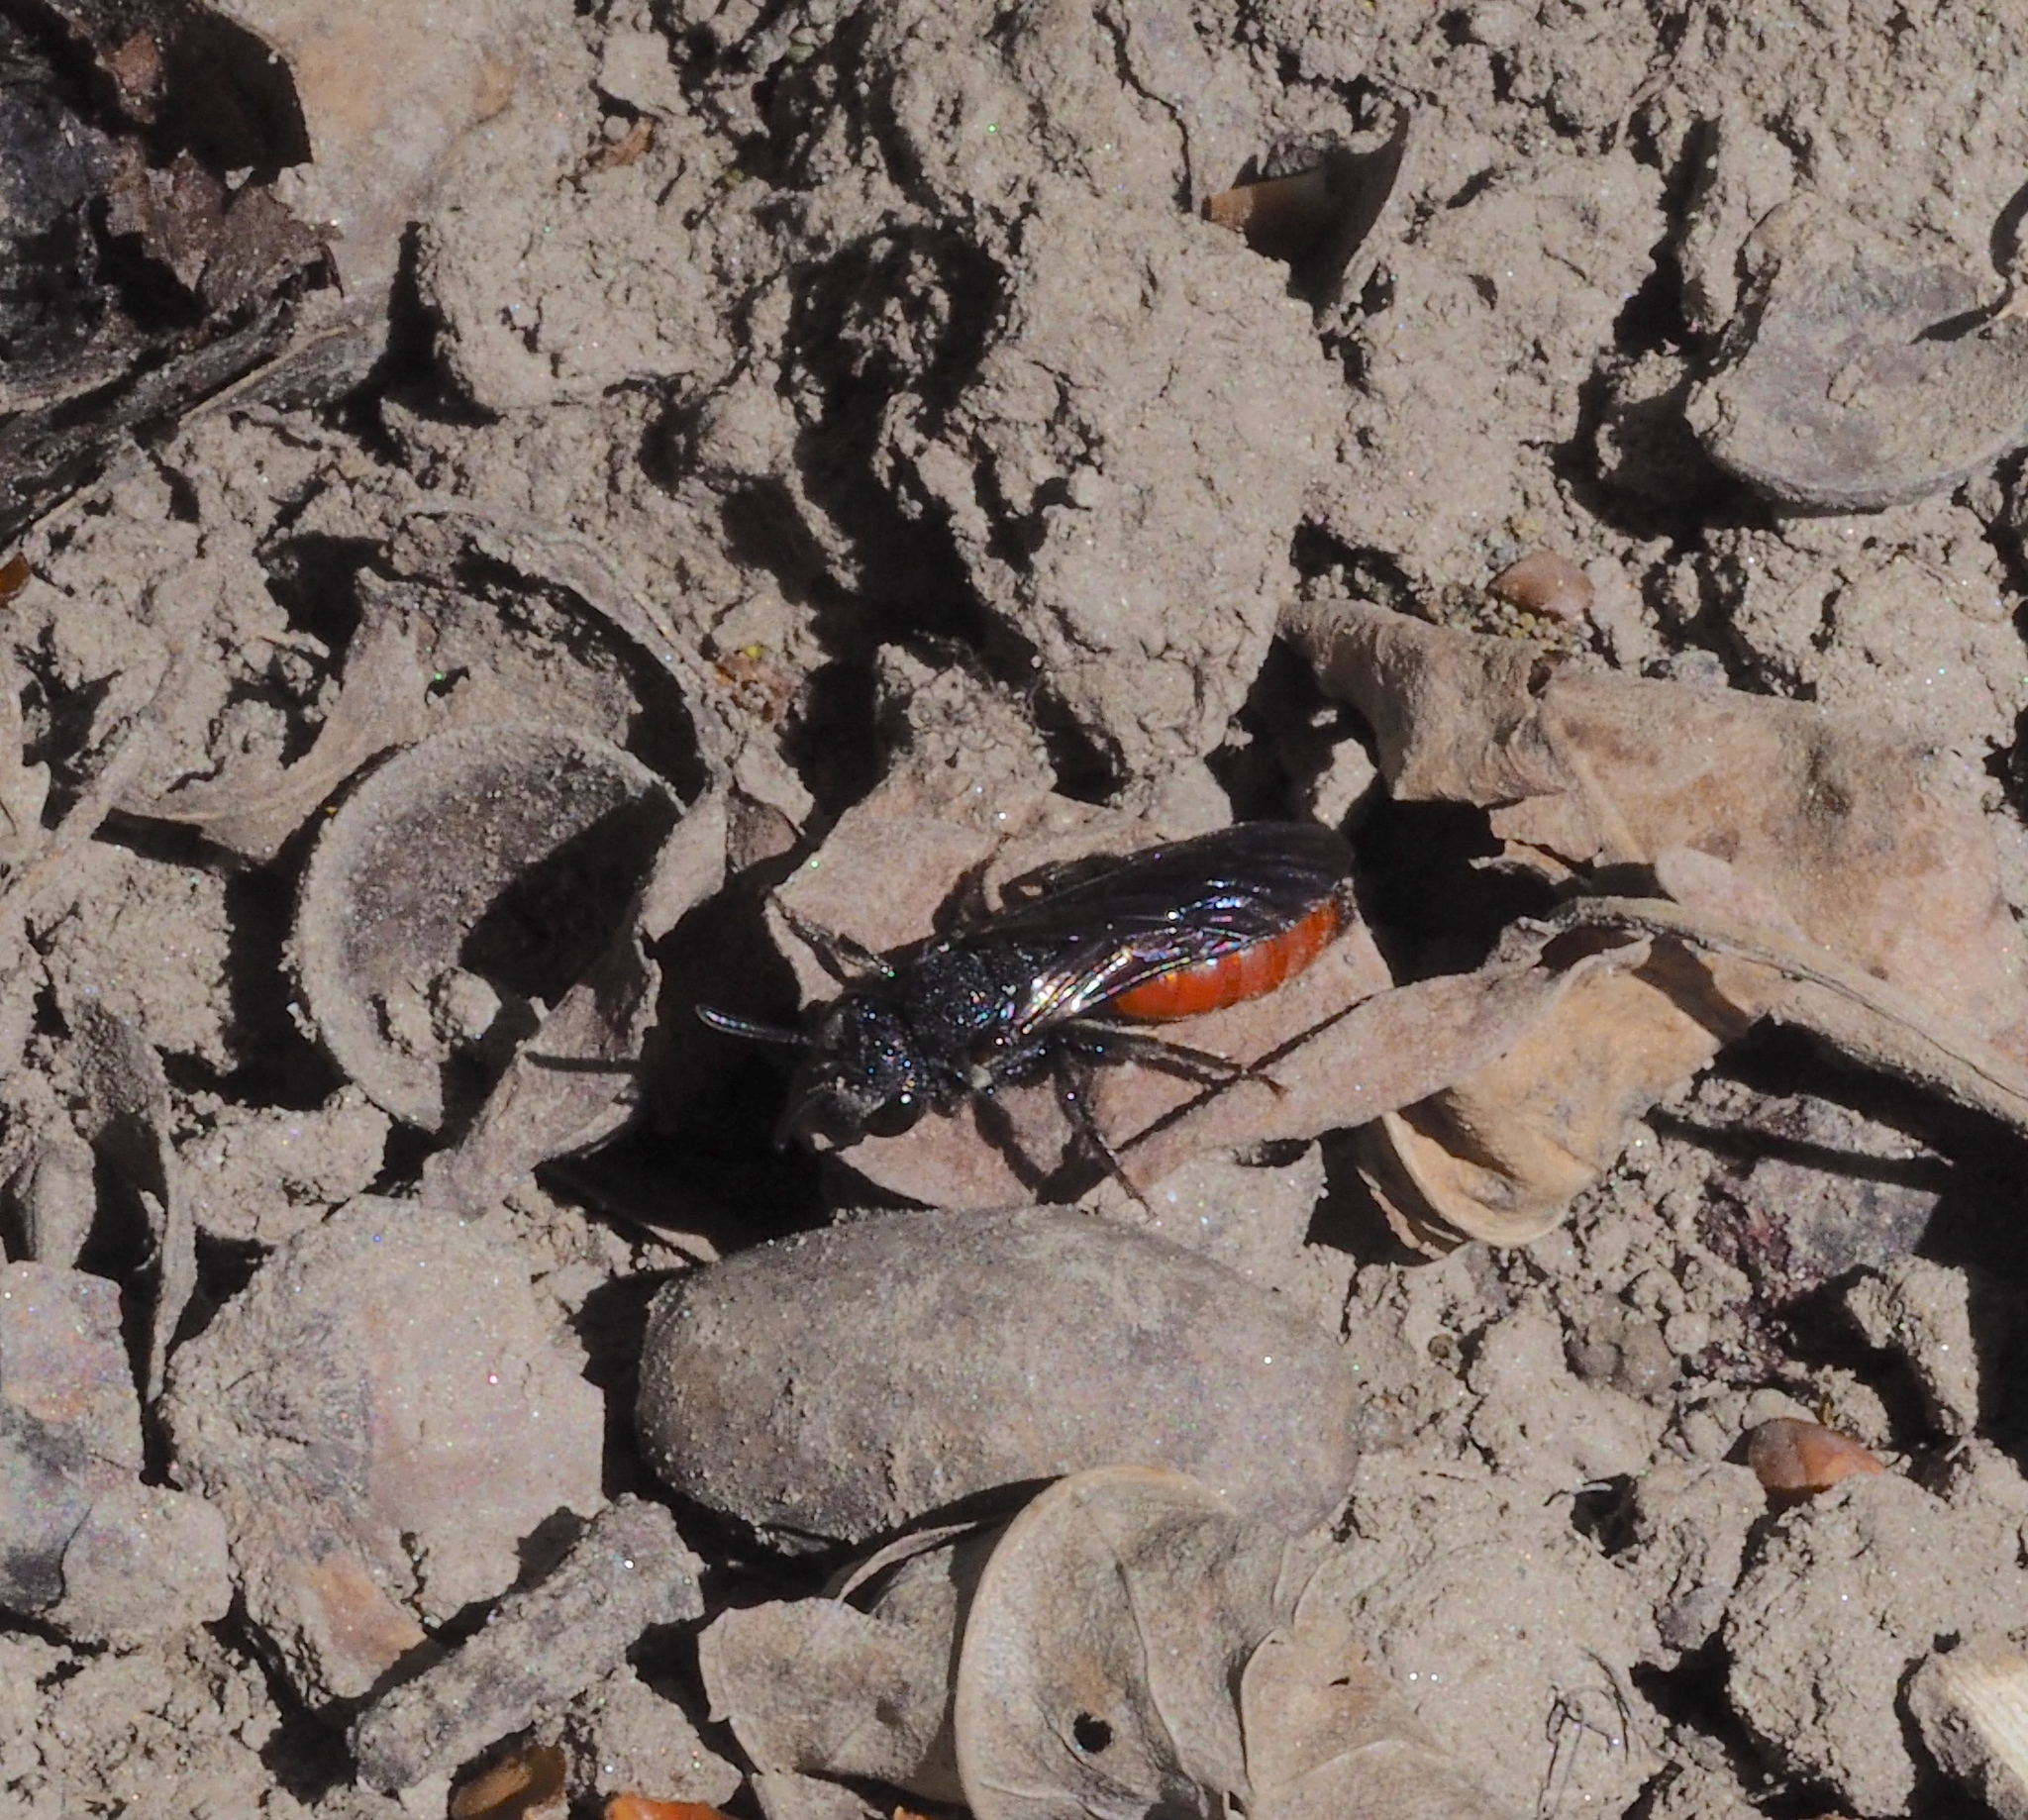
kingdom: Animalia
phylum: Arthropoda
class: Insecta
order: Hymenoptera
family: Halictidae
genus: Sphecodes
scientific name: Sphecodes albilabris
